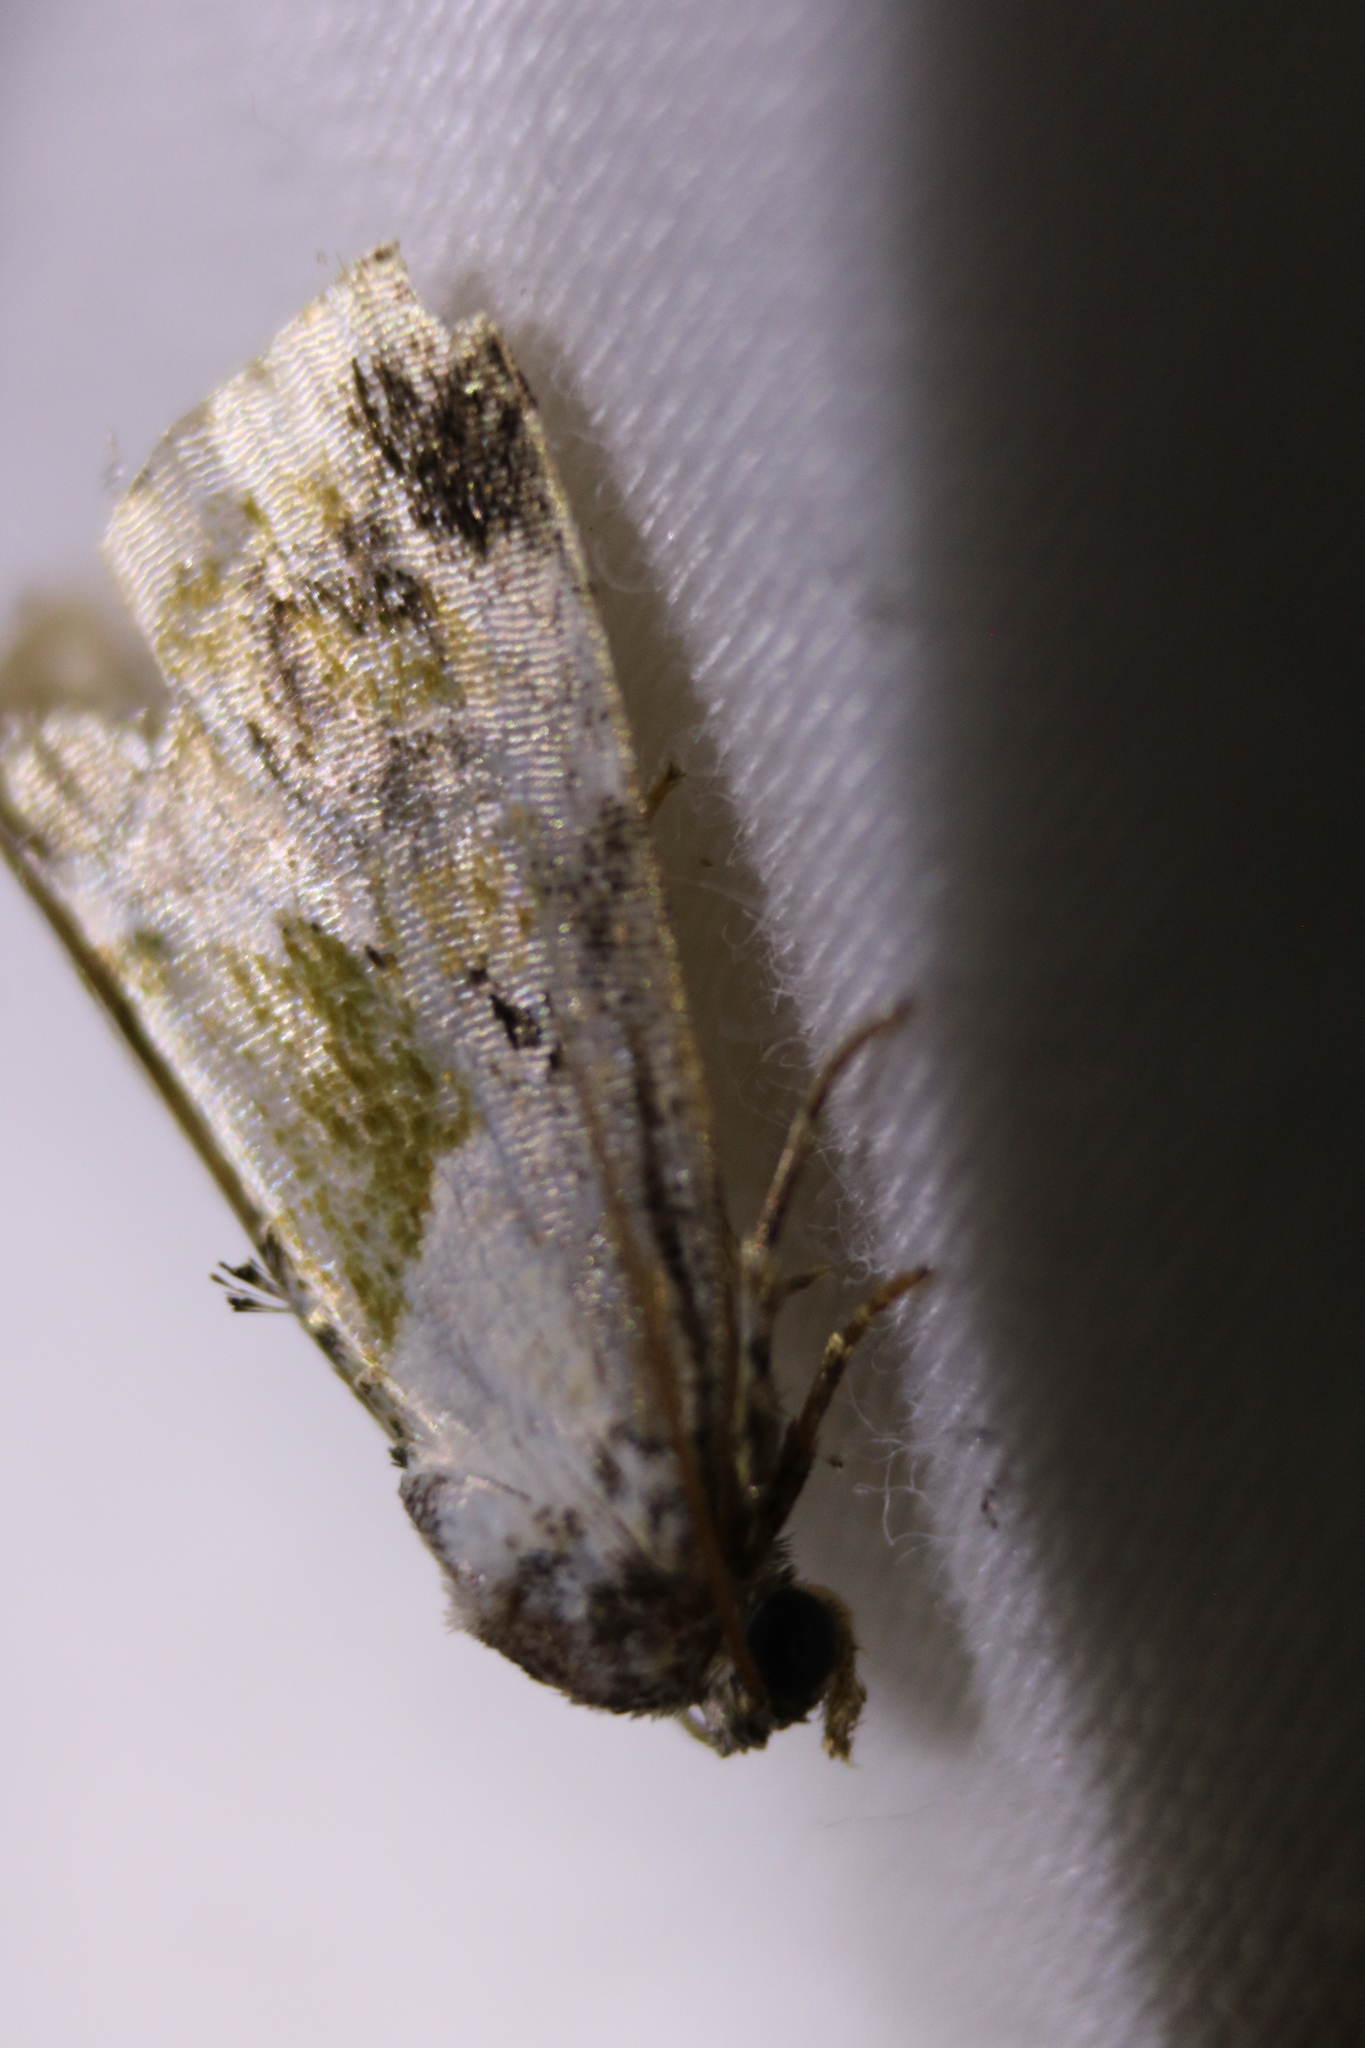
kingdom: Animalia
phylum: Arthropoda
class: Insecta
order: Lepidoptera
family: Noctuidae
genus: Maliattha
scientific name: Maliattha synochitis
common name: Black-dotted glyph
